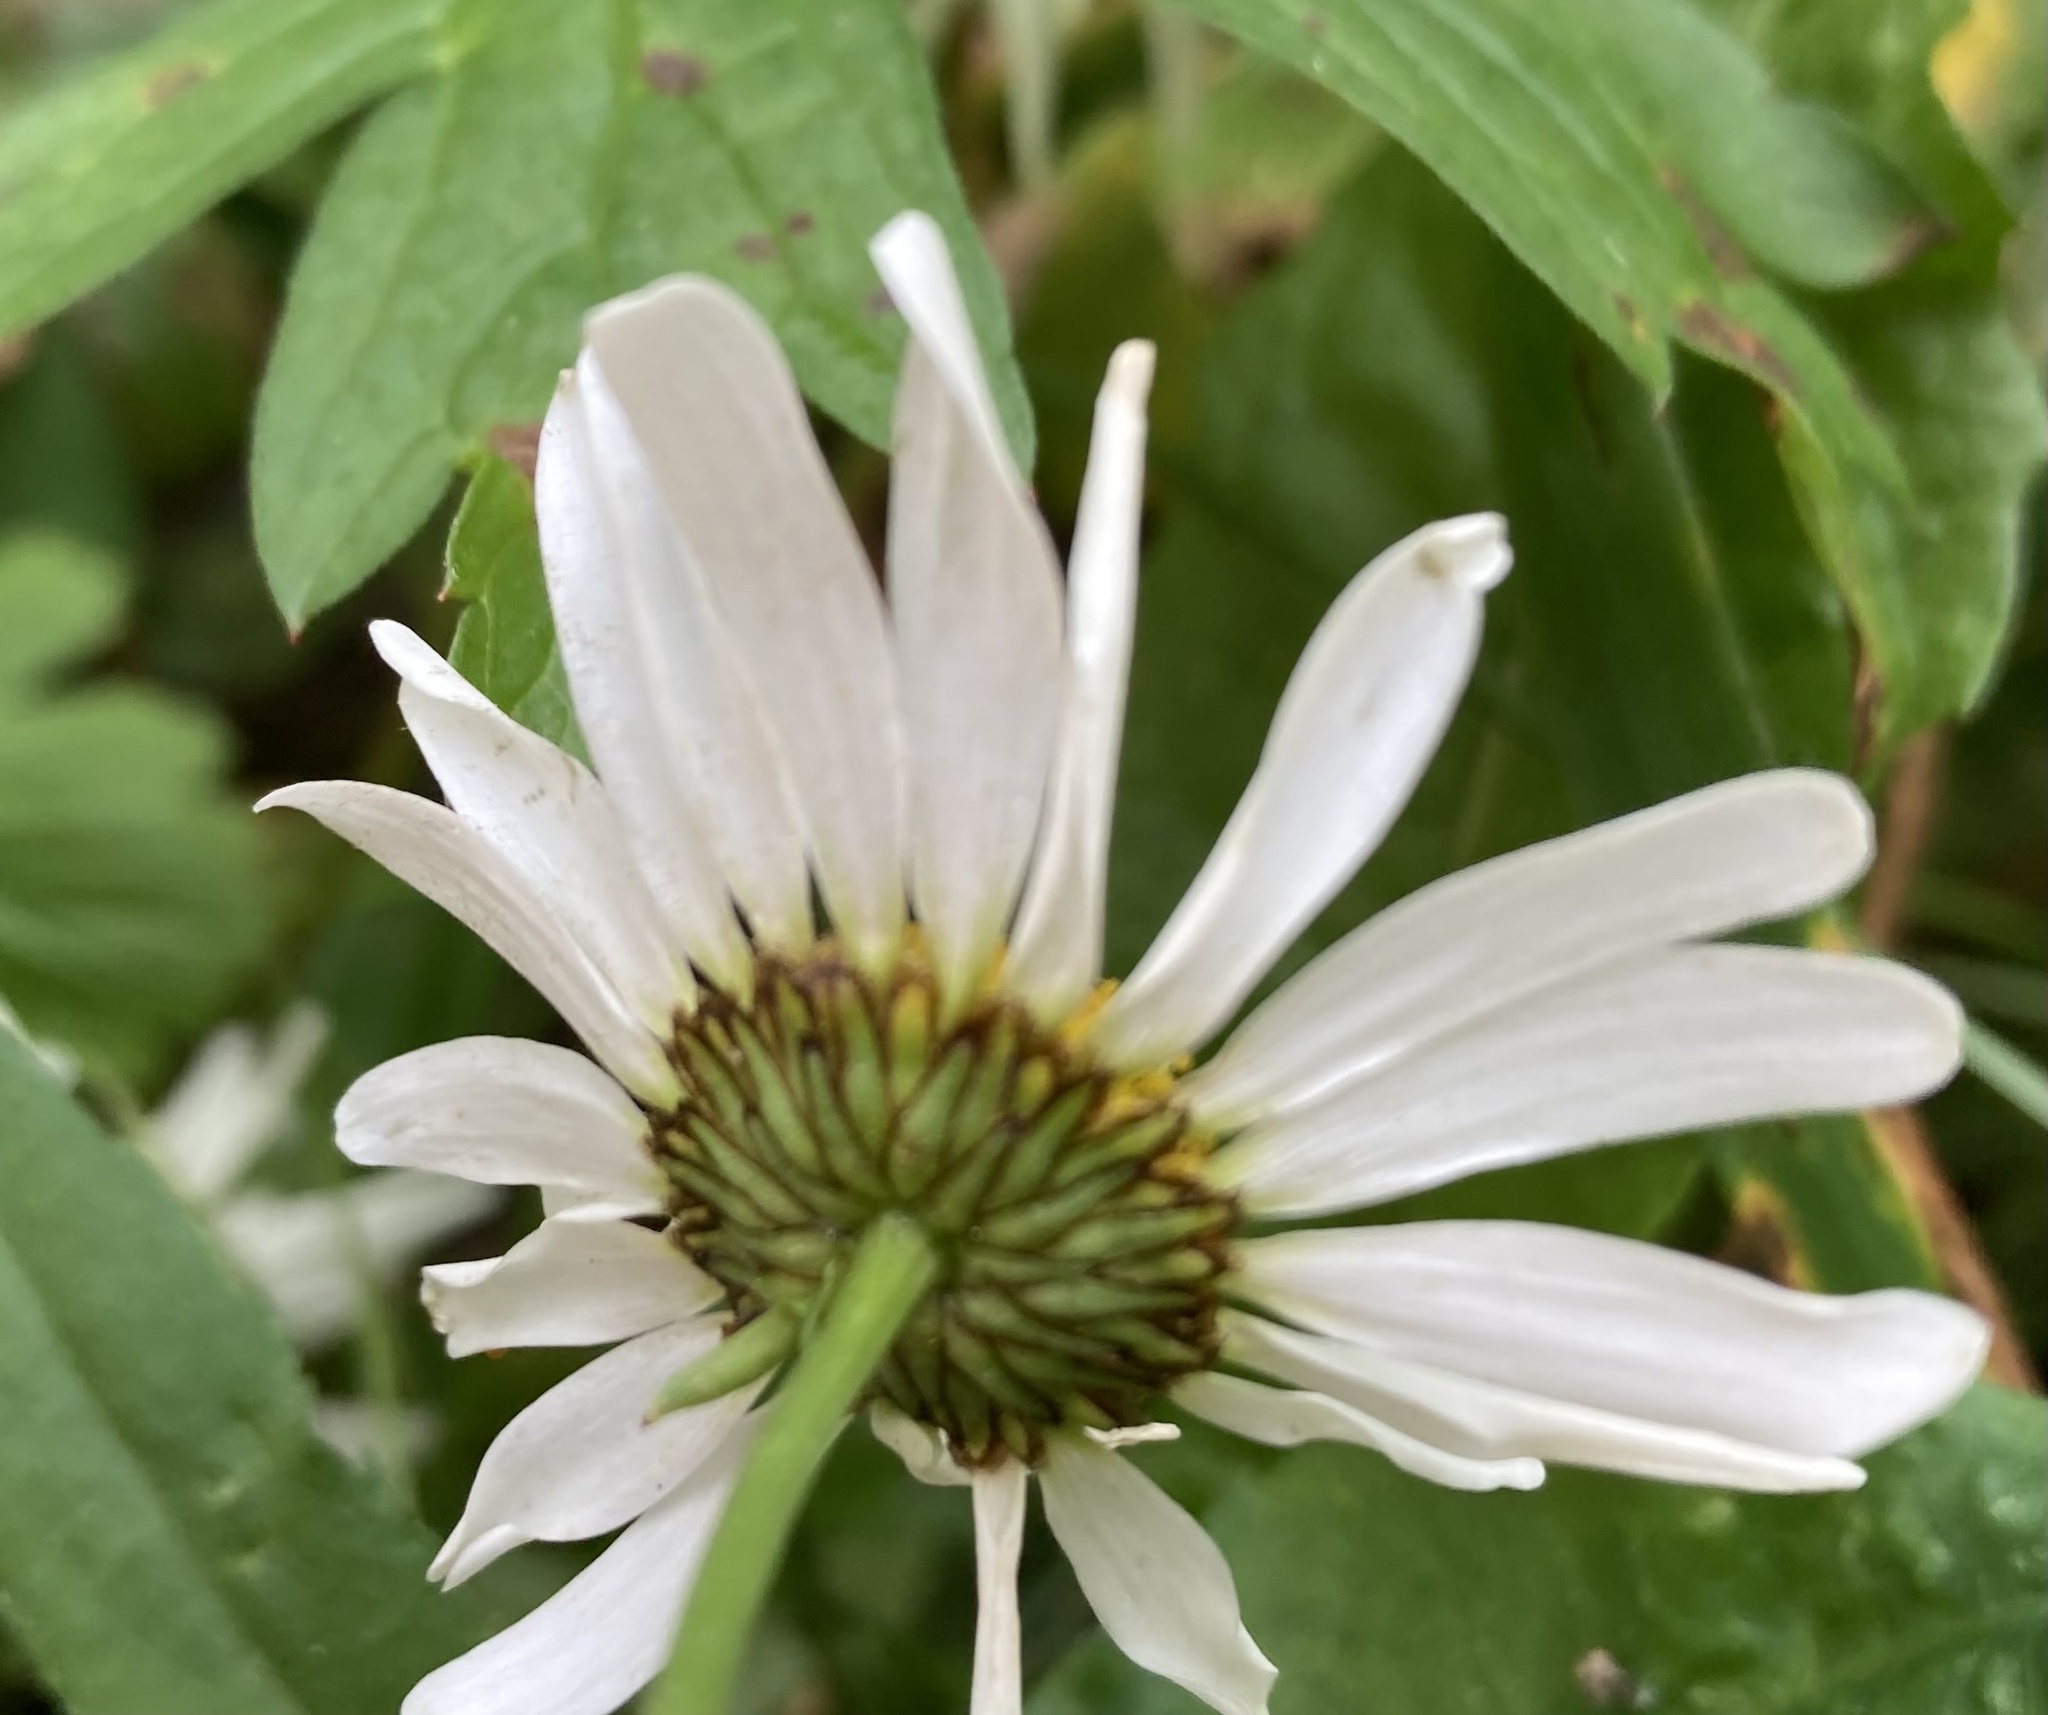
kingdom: Plantae
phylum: Tracheophyta
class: Magnoliopsida
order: Asterales
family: Asteraceae
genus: Leucanthemum
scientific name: Leucanthemum vulgare
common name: Oxeye daisy
